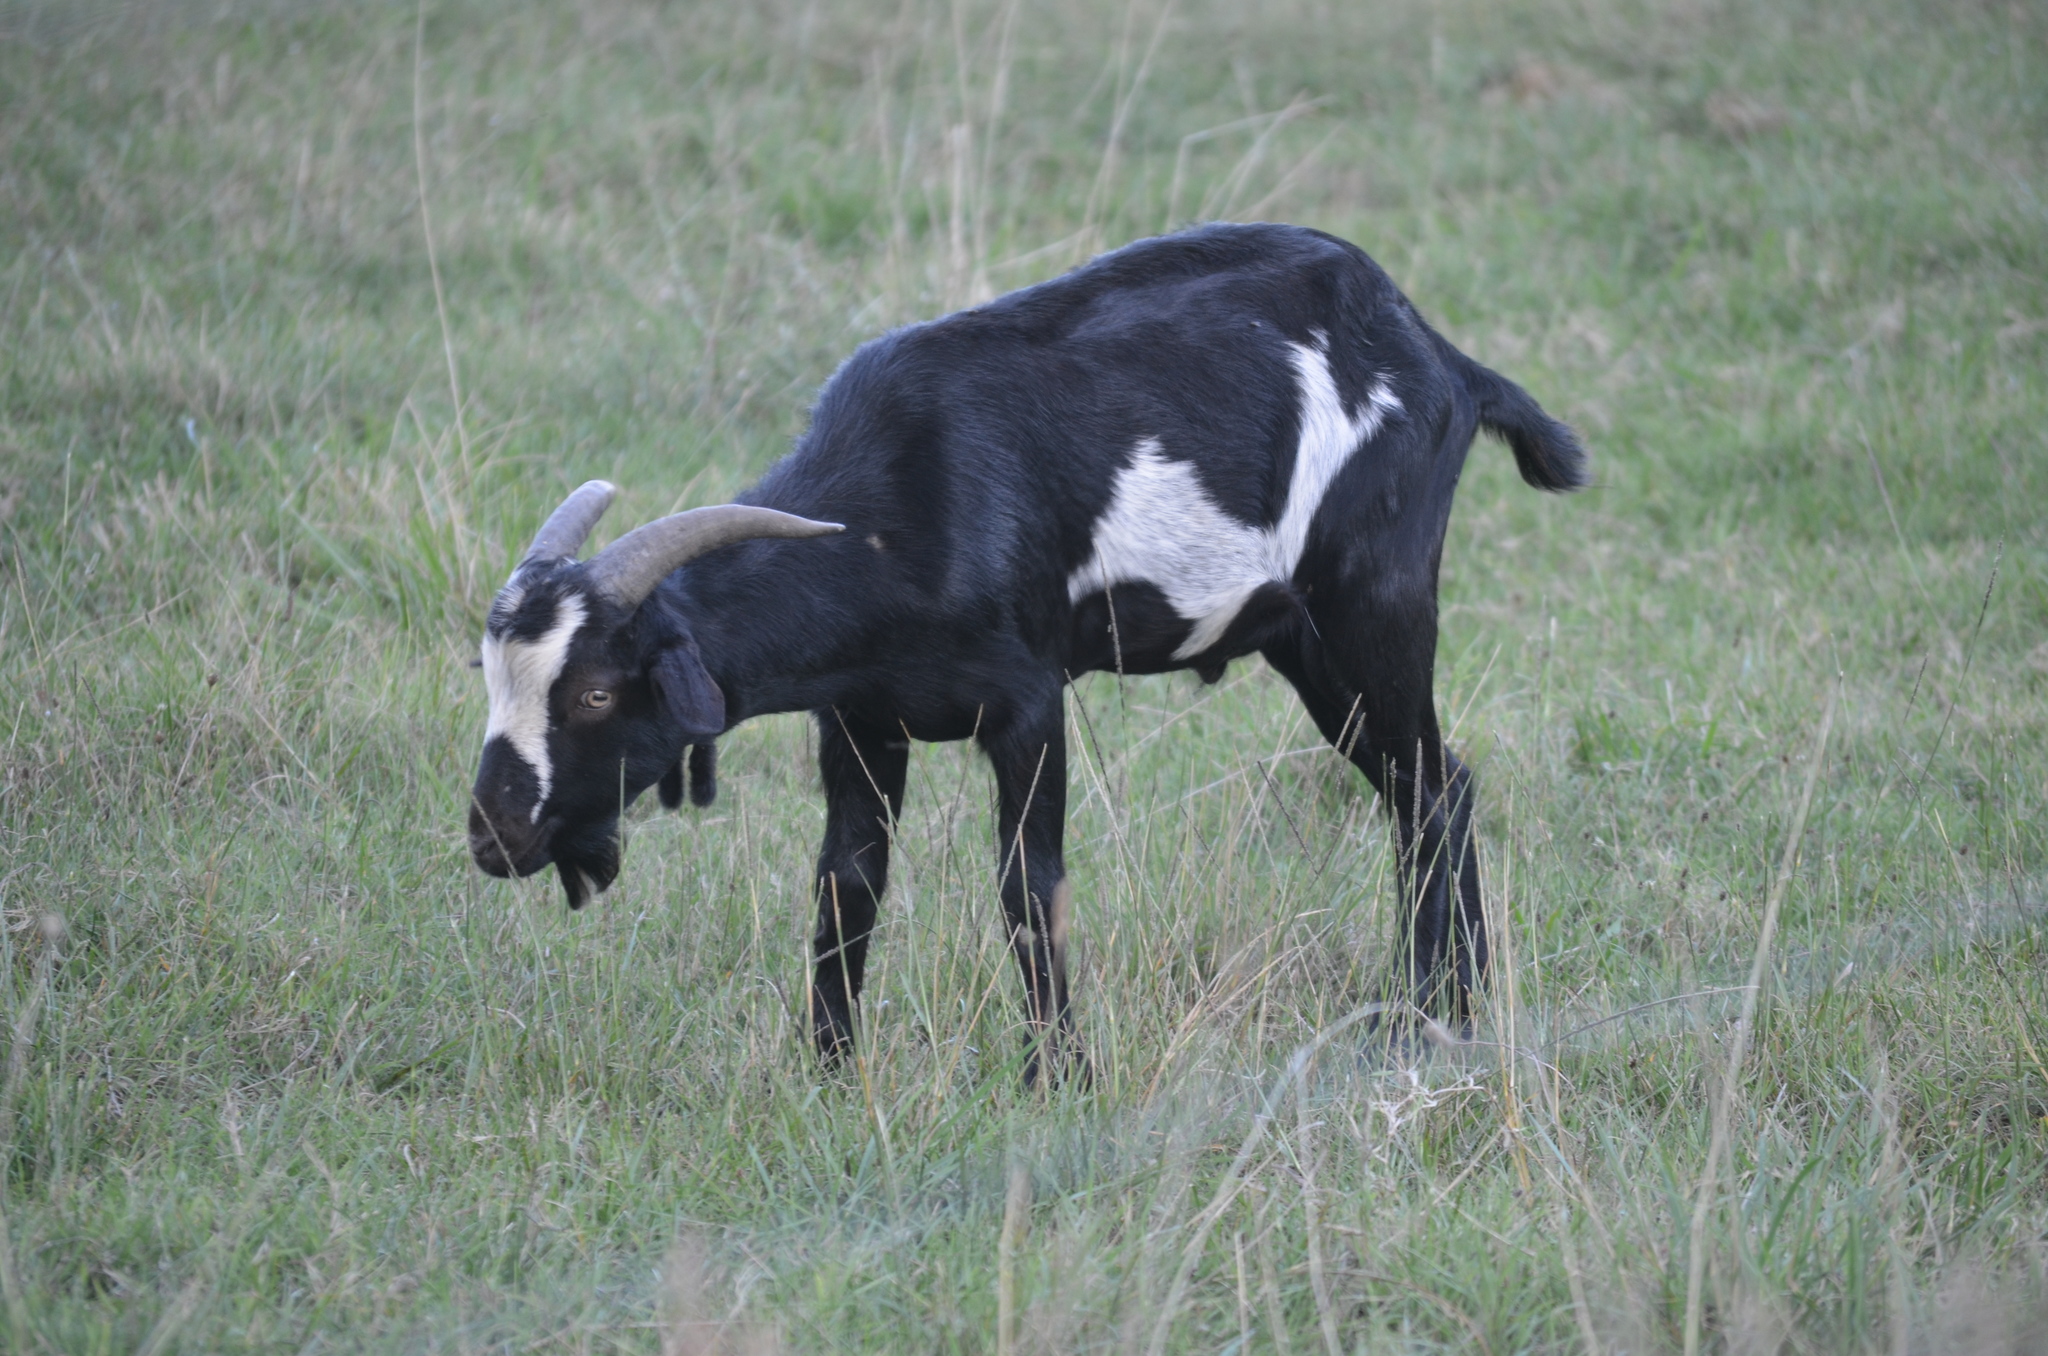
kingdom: Animalia
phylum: Chordata
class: Mammalia
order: Artiodactyla
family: Bovidae
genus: Capra
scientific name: Capra hircus
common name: Domestic goat
